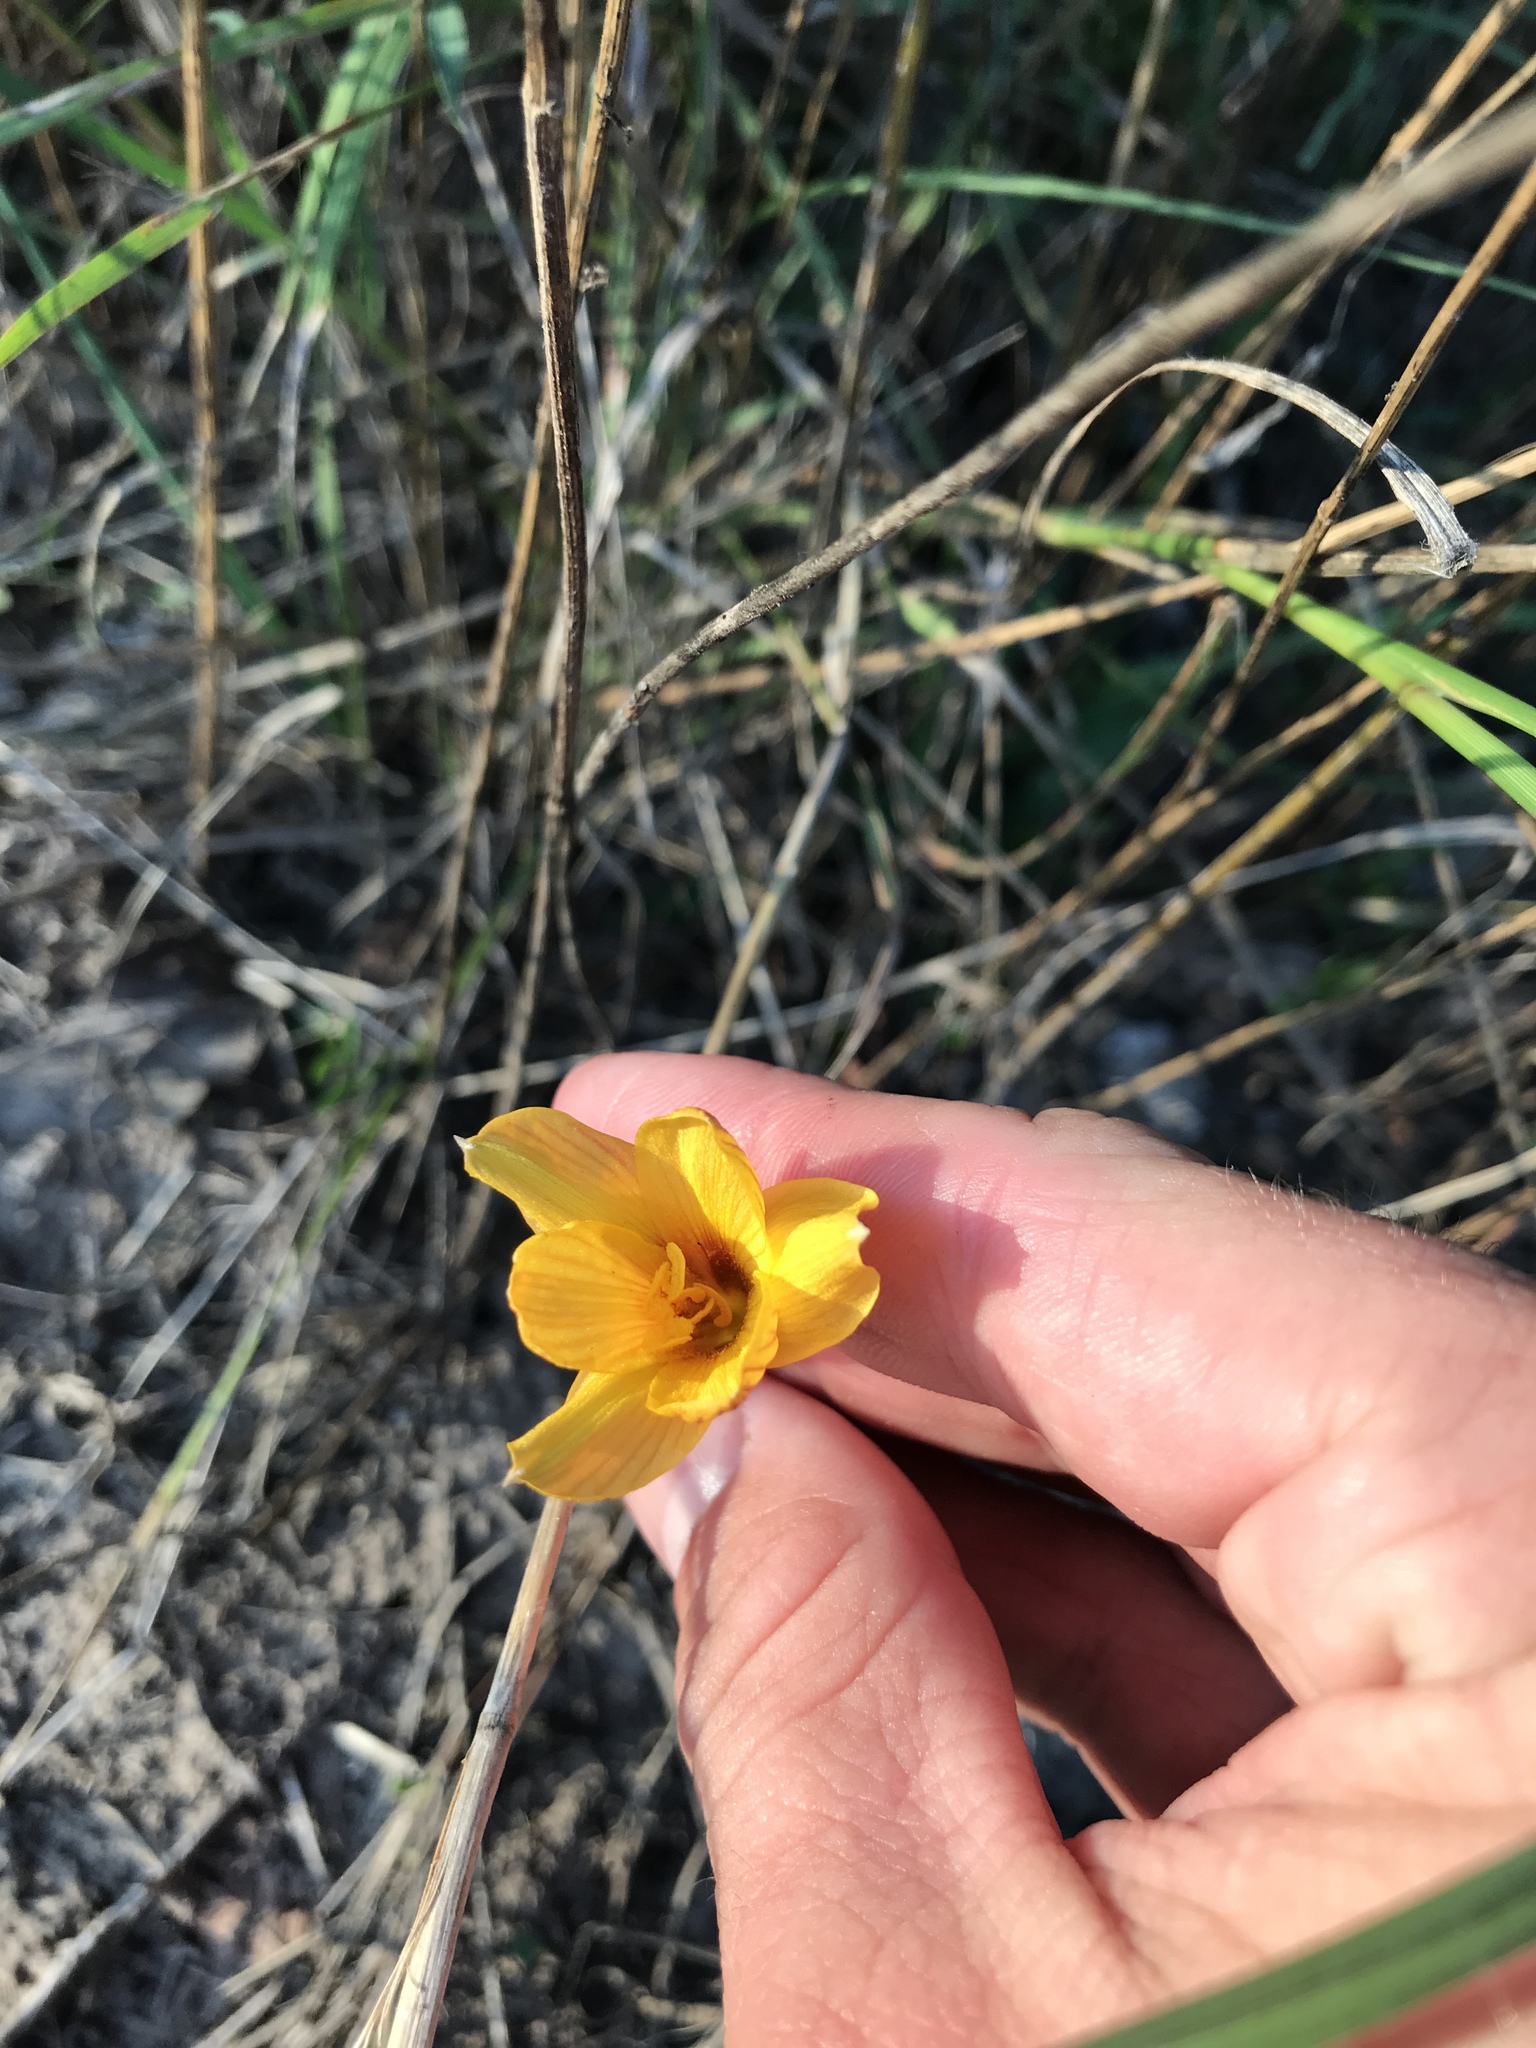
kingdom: Plantae
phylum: Tracheophyta
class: Liliopsida
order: Asparagales
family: Amaryllidaceae
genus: Zephyranthes
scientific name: Zephyranthes tubispatha
